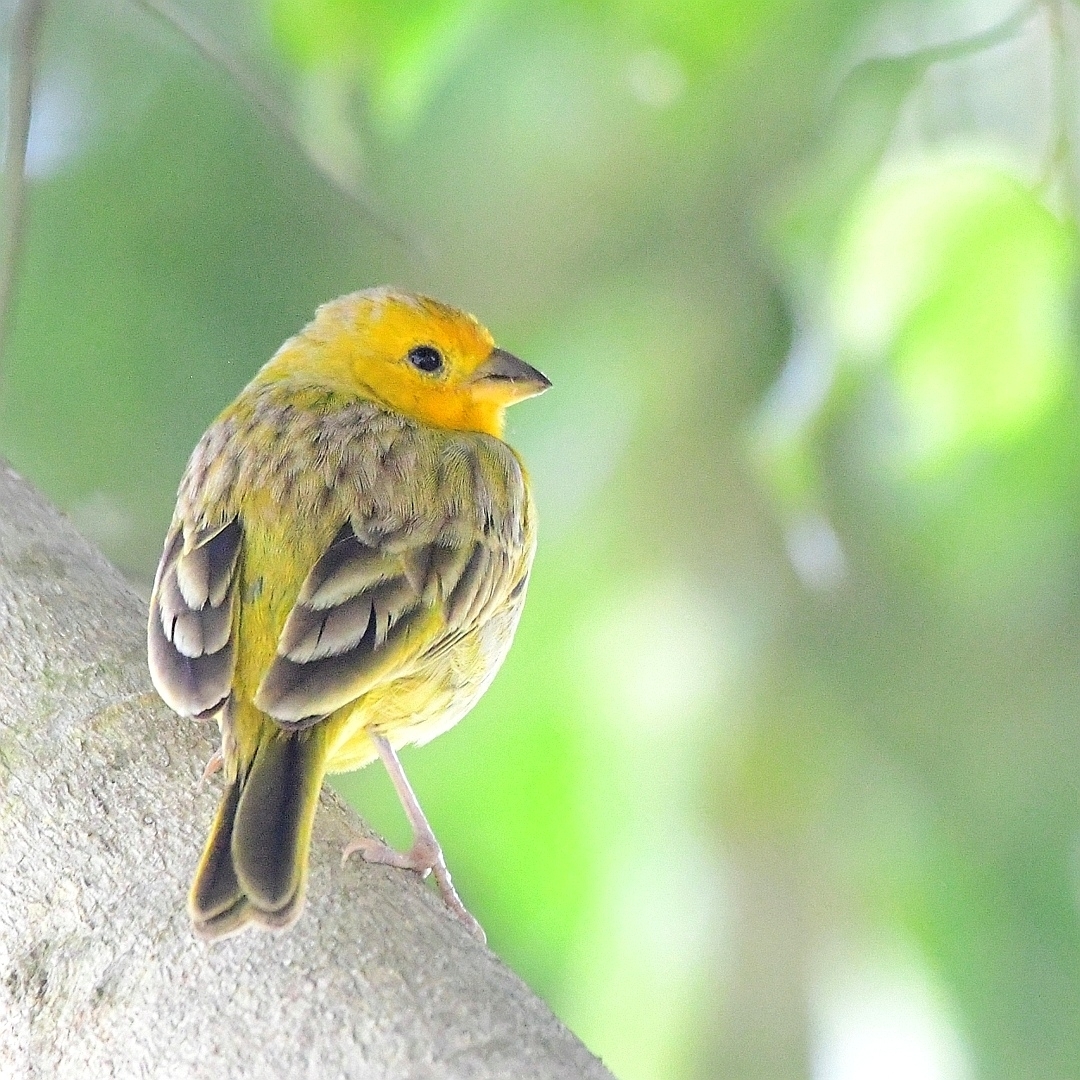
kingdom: Animalia
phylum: Chordata
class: Aves
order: Passeriformes
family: Thraupidae
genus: Sicalis
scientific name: Sicalis flaveola
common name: Saffron finch
